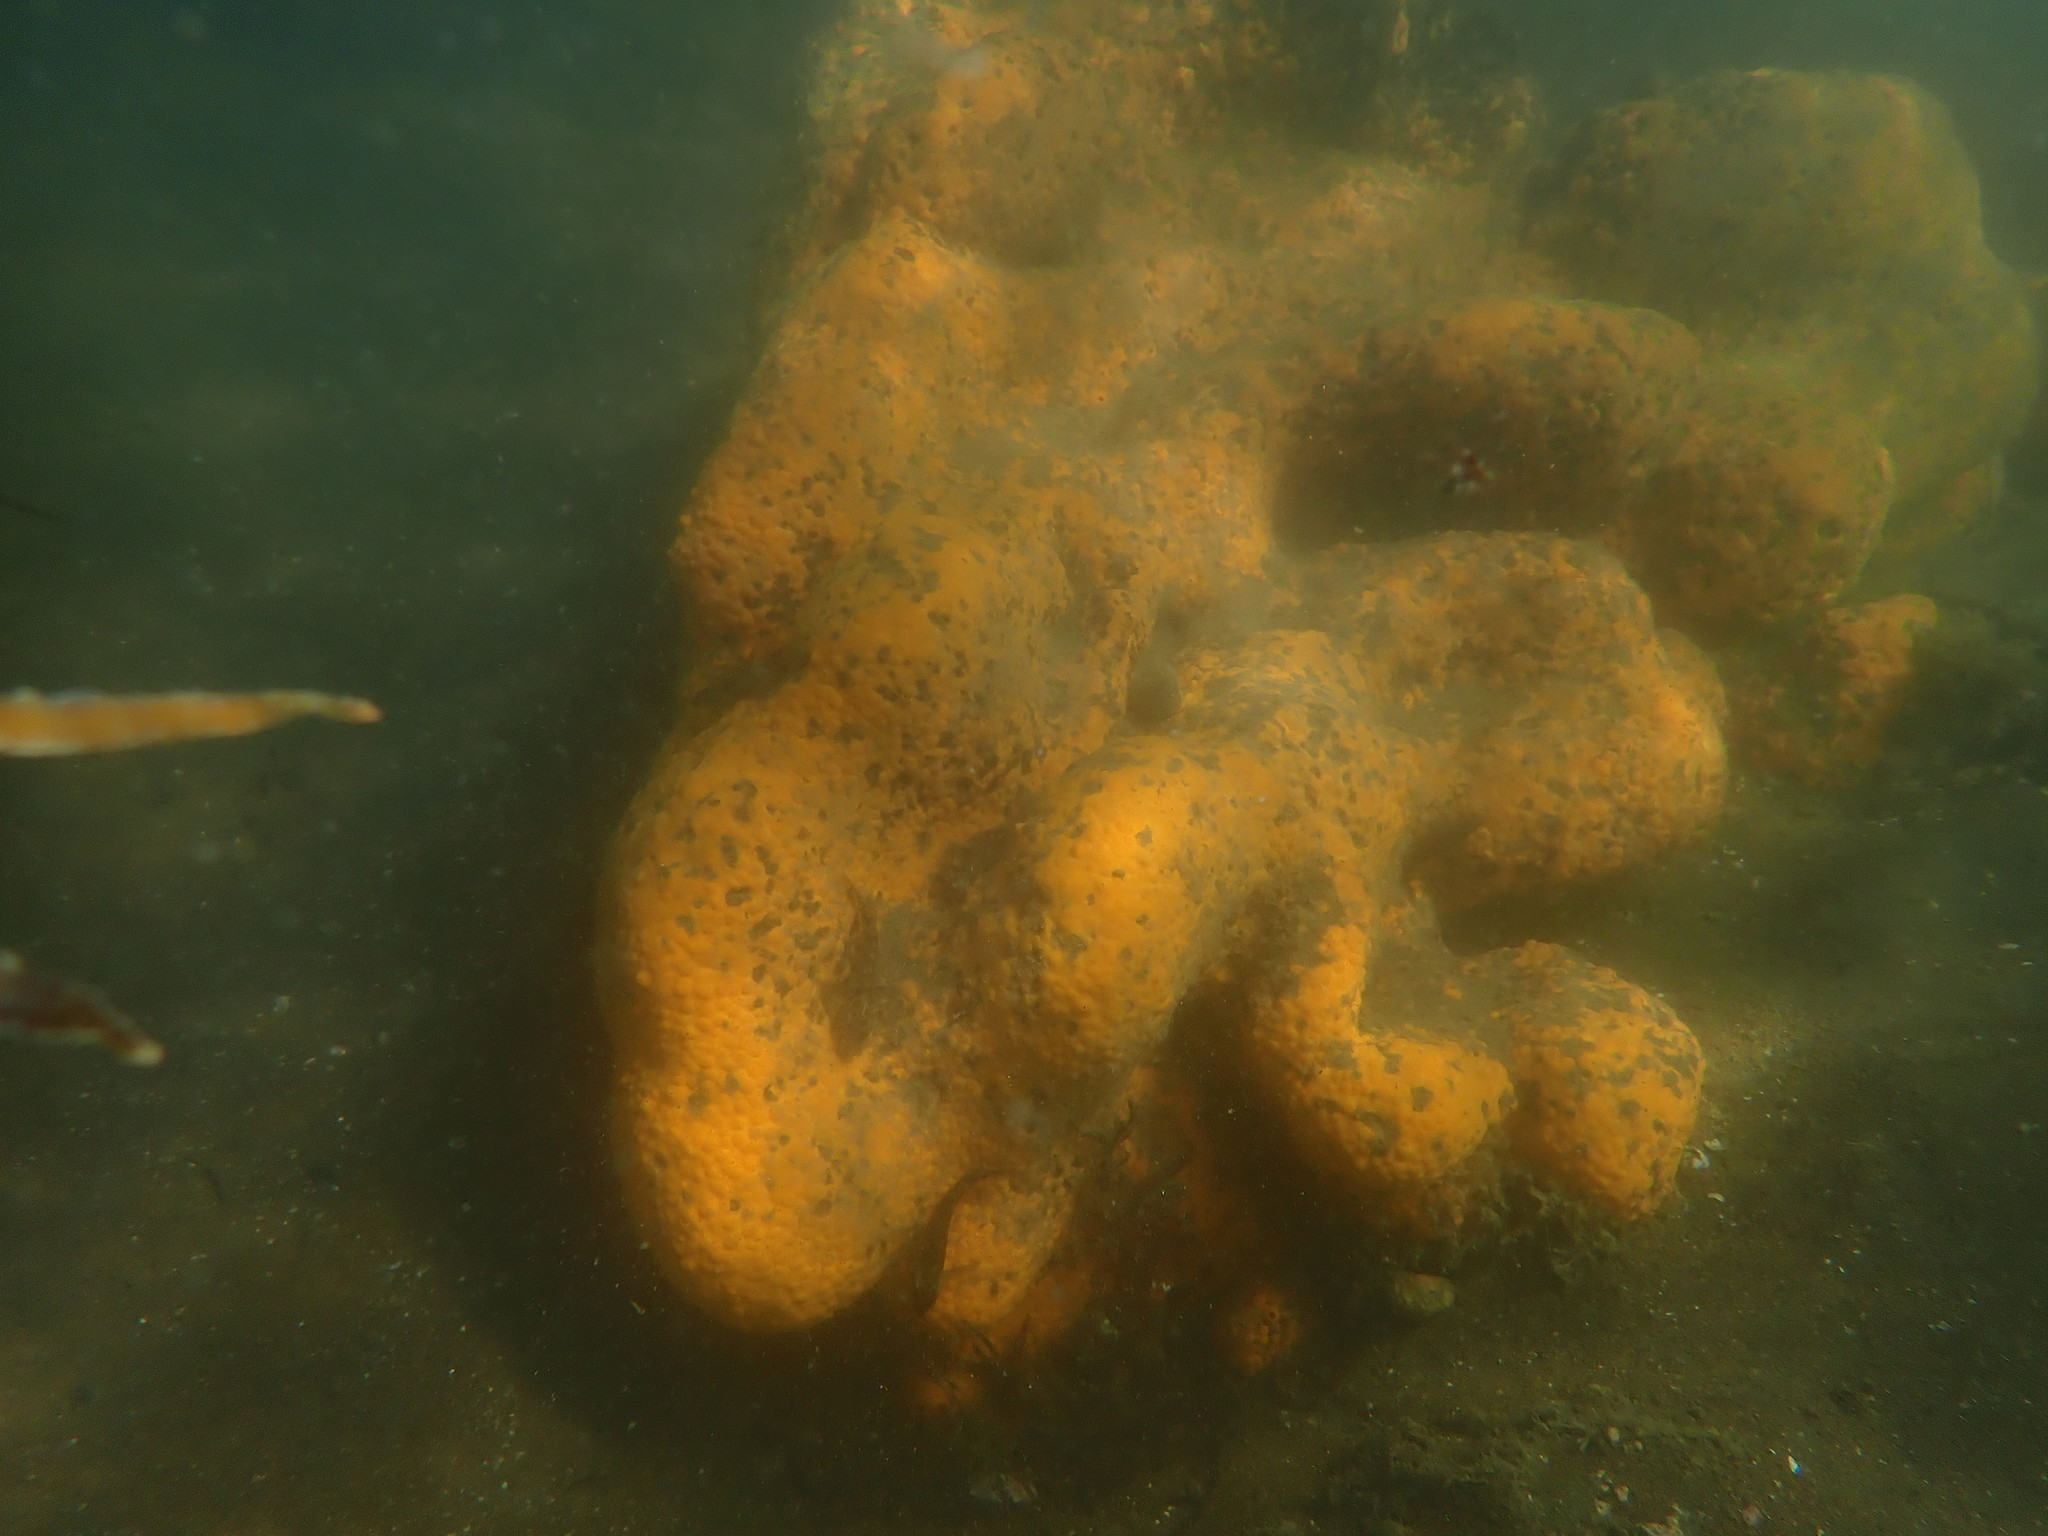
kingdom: Animalia
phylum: Porifera
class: Demospongiae
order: Clionaida
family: Clionaidae
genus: Cliona
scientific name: Cliona celata
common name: Boring sponge
